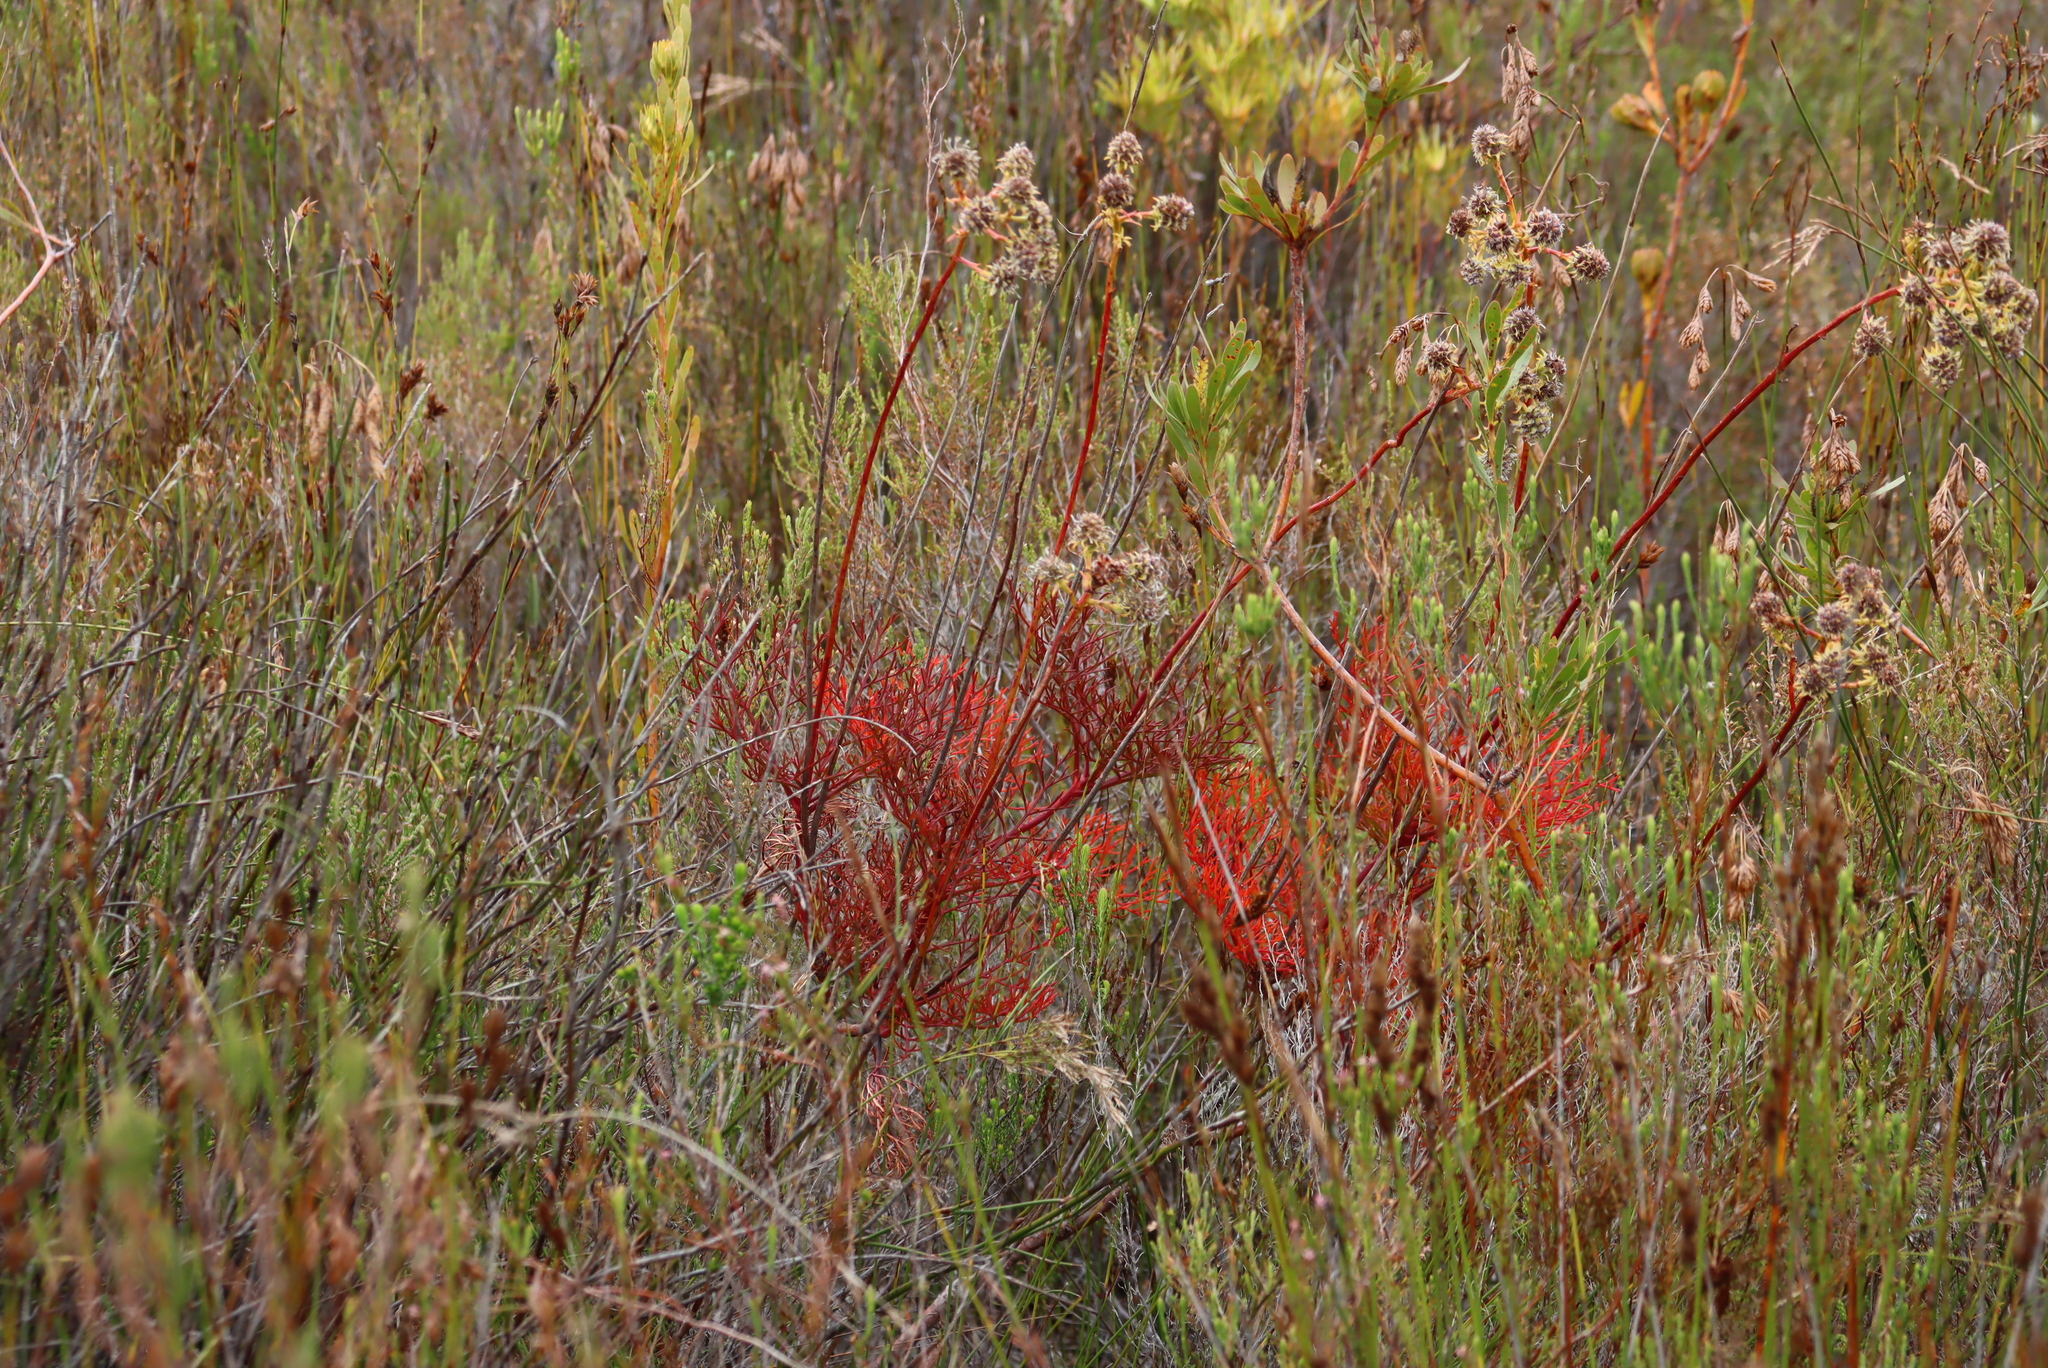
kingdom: Plantae
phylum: Tracheophyta
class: Magnoliopsida
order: Proteales
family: Proteaceae
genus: Serruria
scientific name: Serruria elongata
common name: Long-stalk spiderhead
